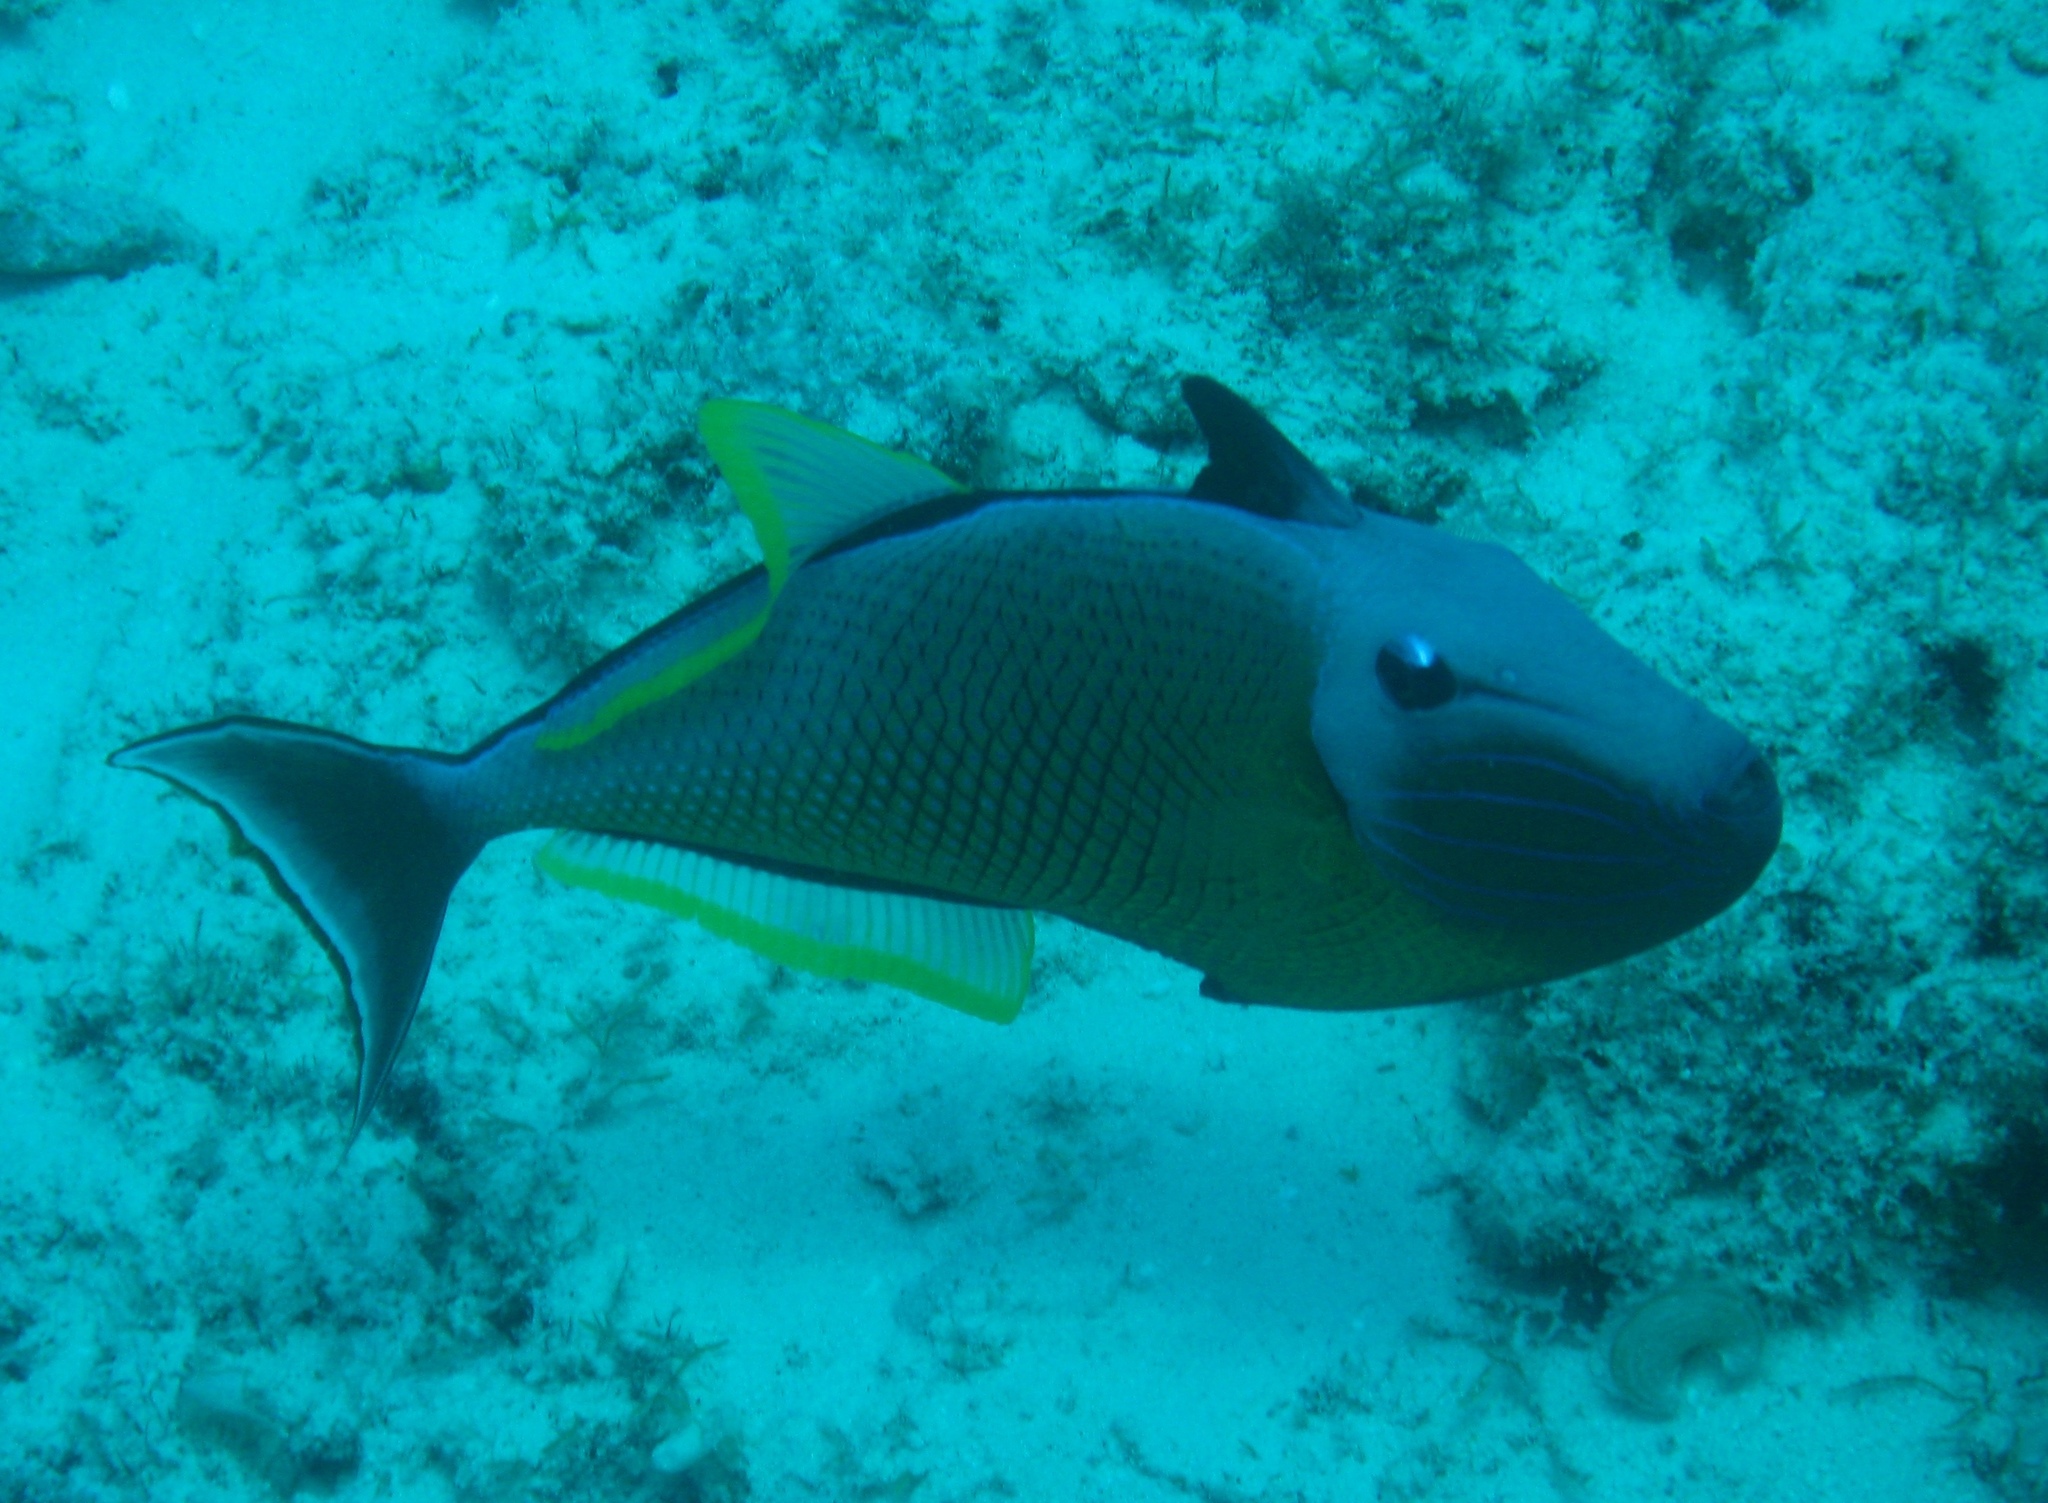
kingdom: Animalia
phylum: Chordata
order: Tetraodontiformes
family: Balistidae
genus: Xanthichthys
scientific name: Xanthichthys mento
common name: Blue-throat trigger
